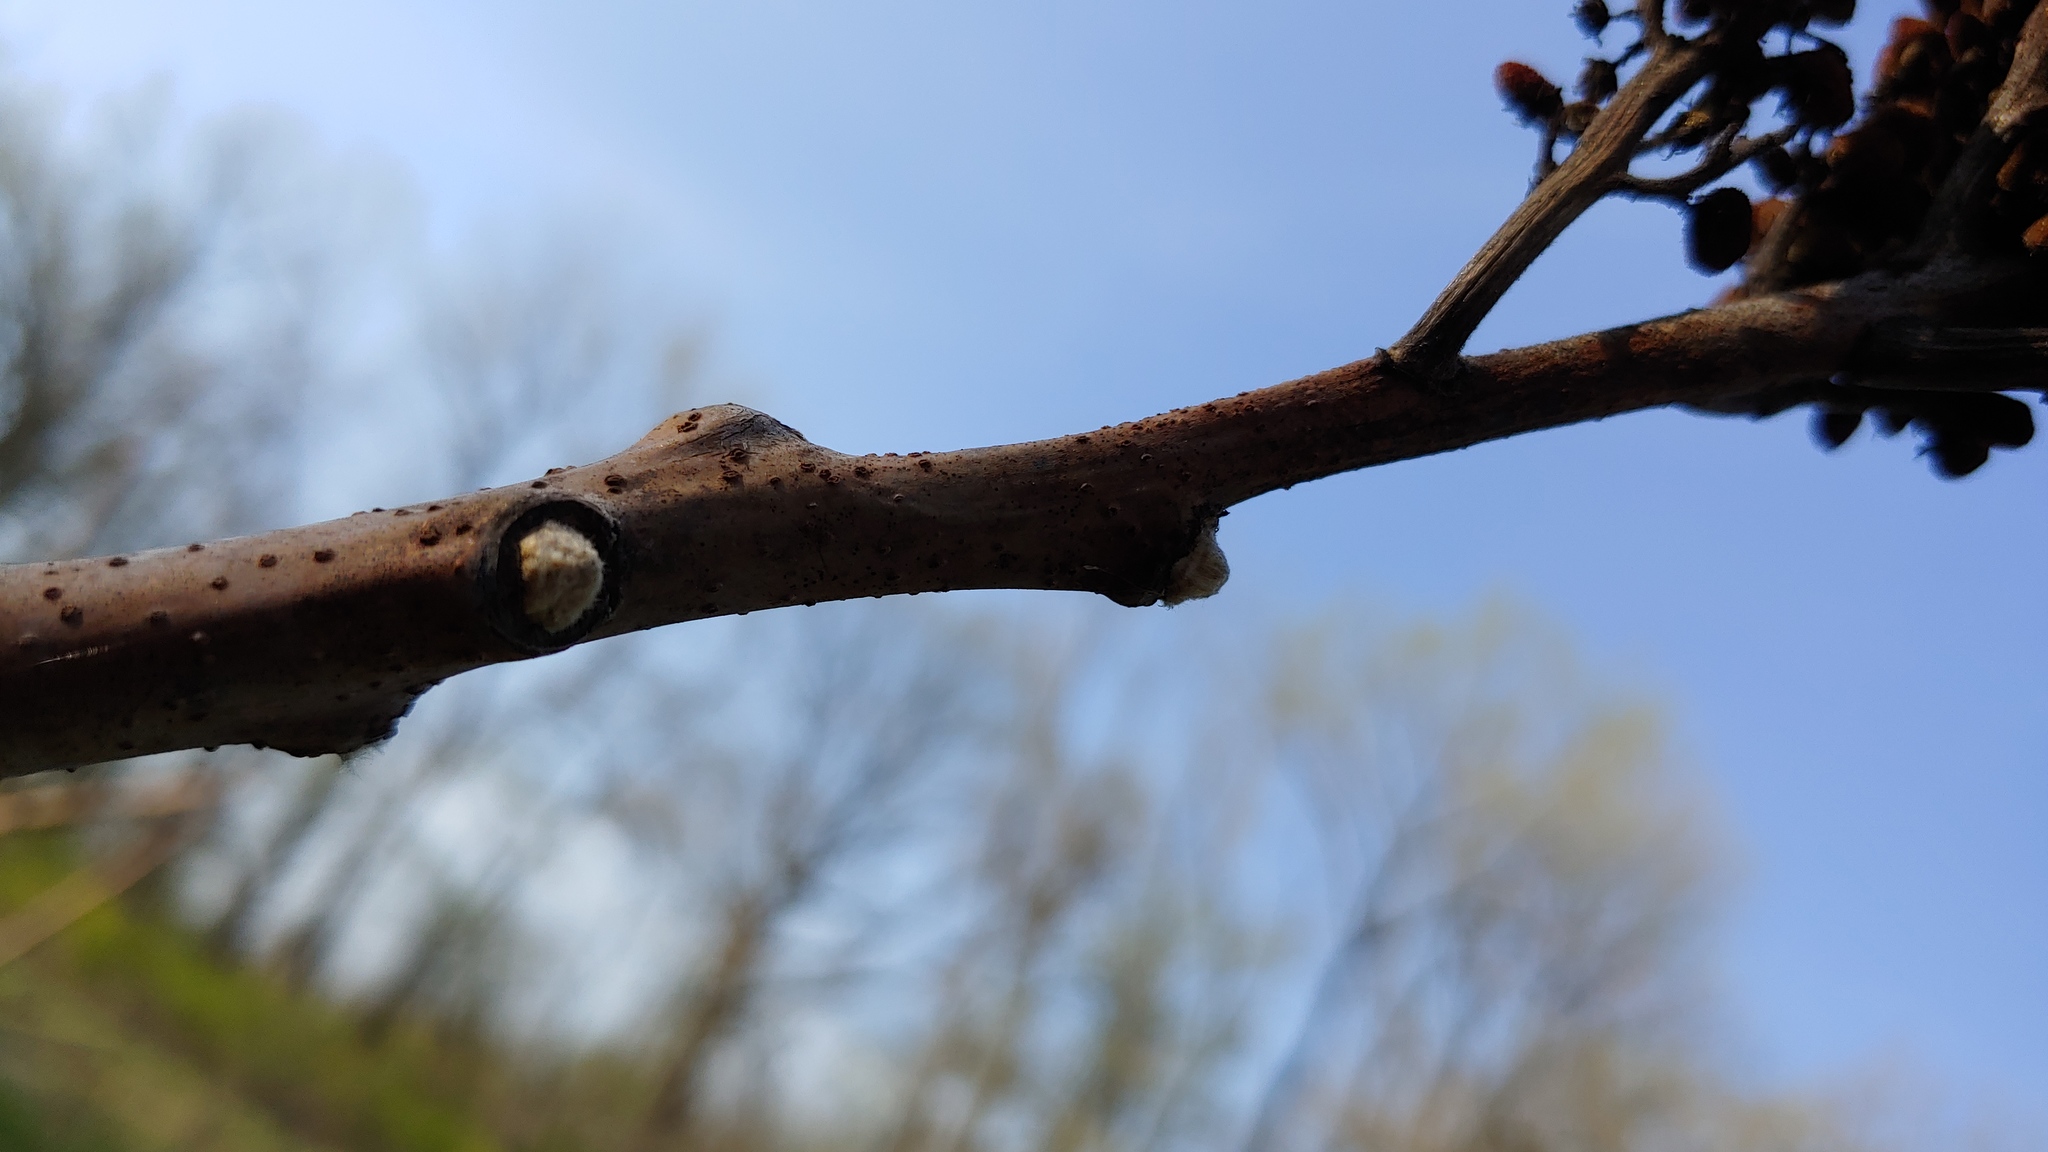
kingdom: Plantae
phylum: Tracheophyta
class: Magnoliopsida
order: Sapindales
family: Anacardiaceae
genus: Rhus
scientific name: Rhus glabra
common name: Scarlet sumac
